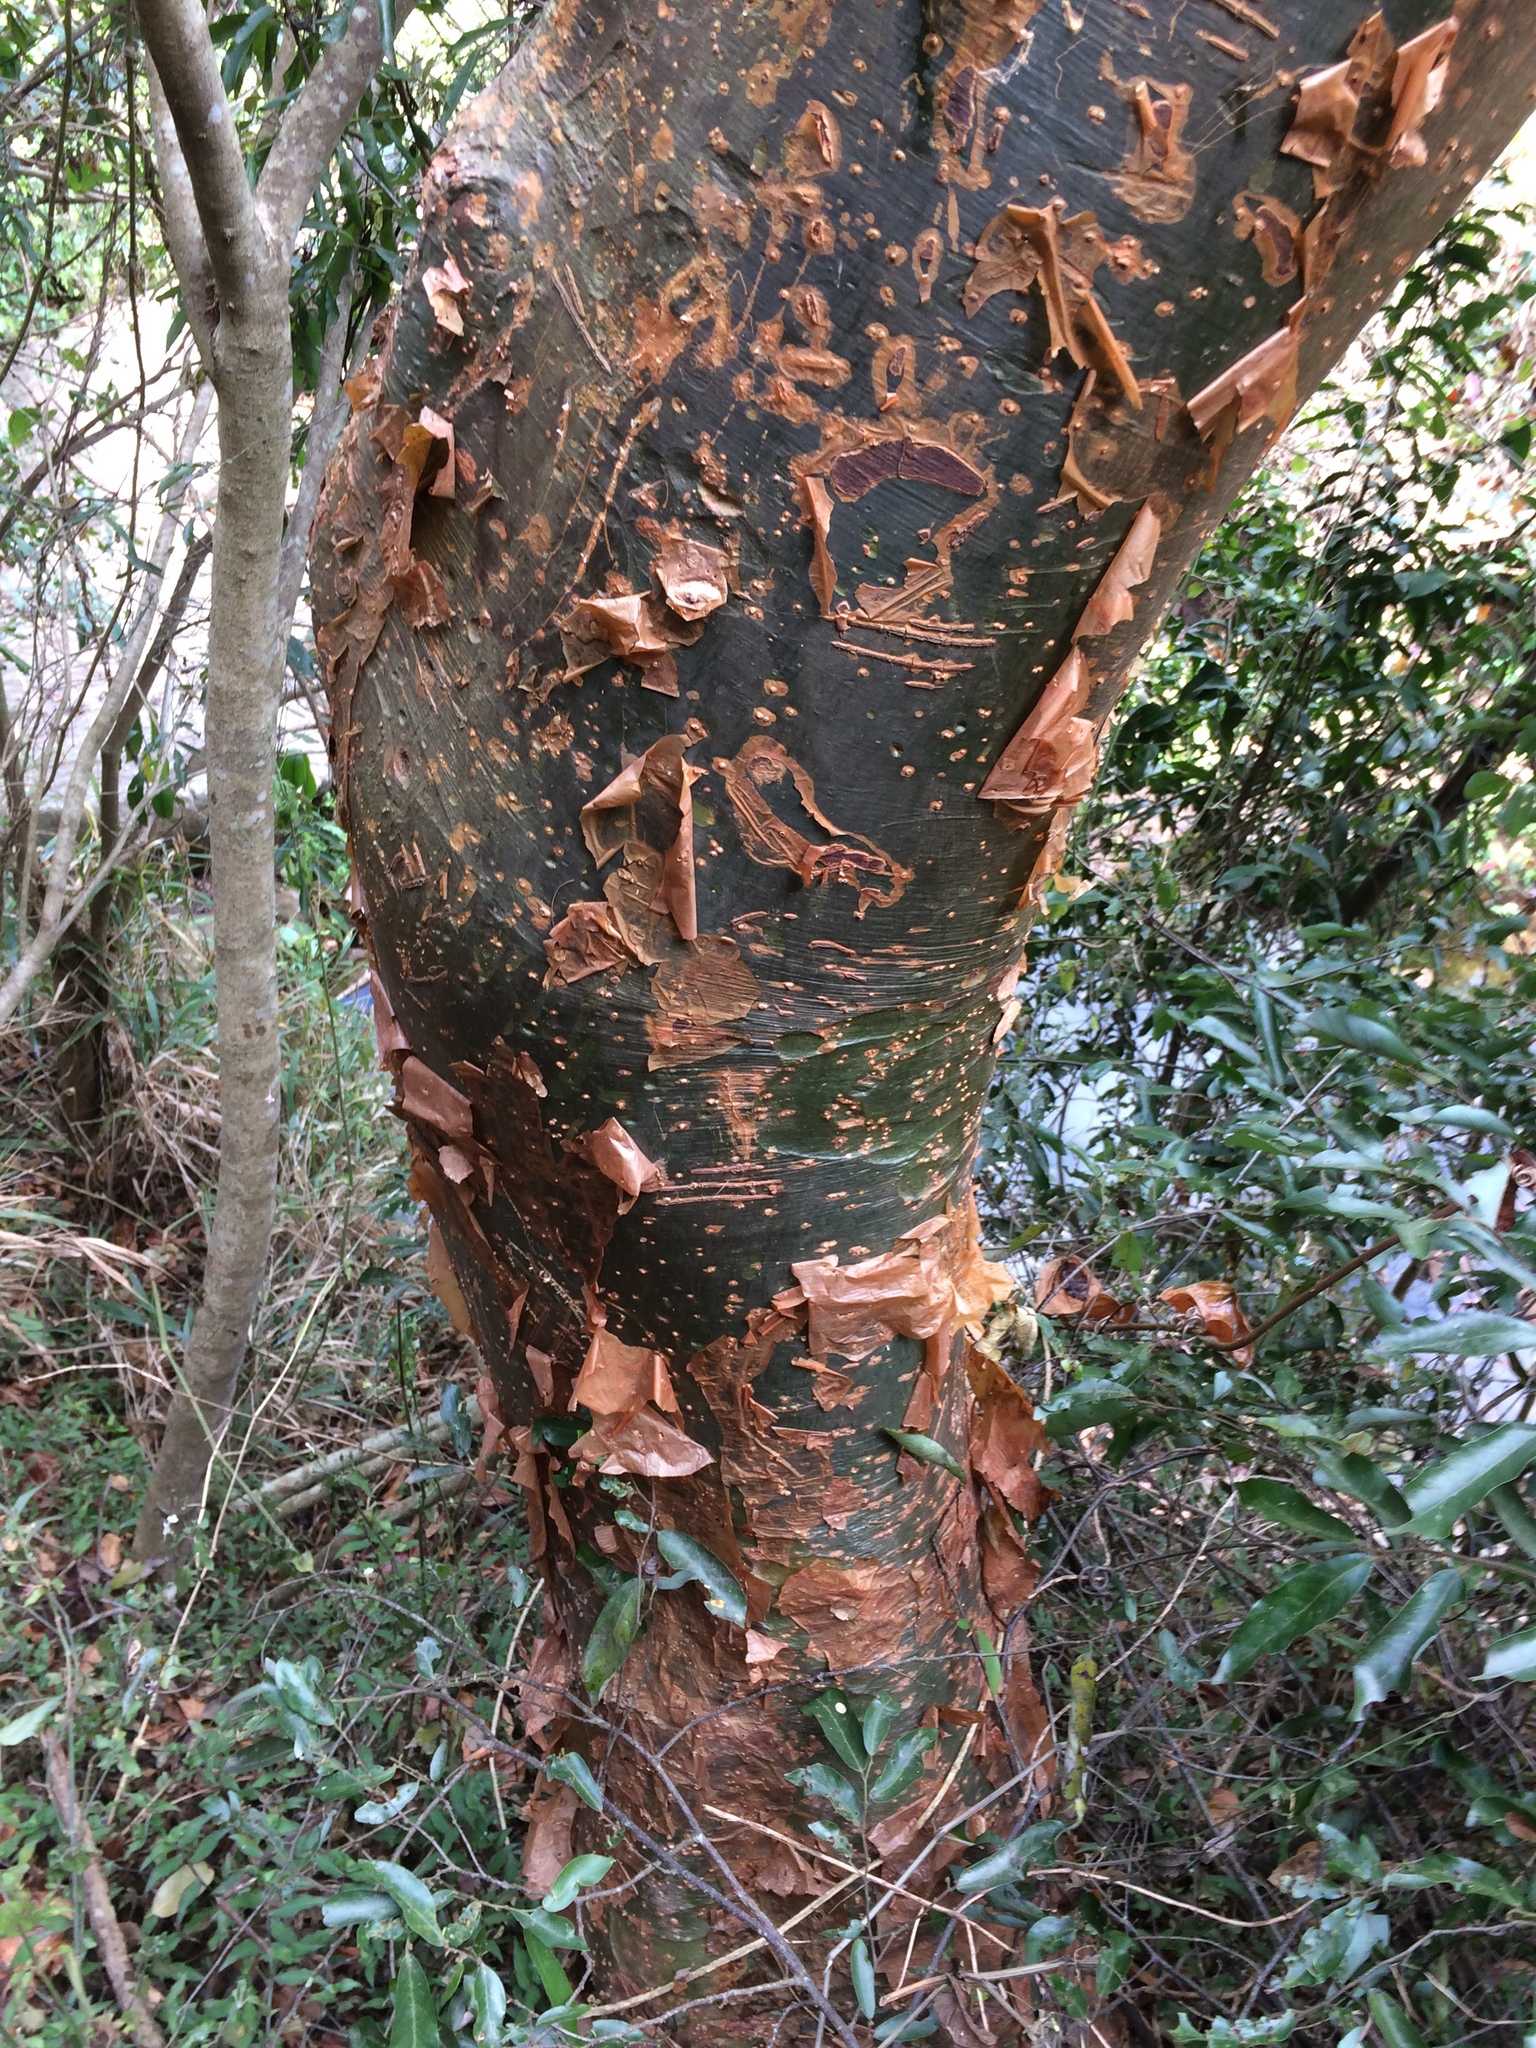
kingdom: Plantae
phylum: Tracheophyta
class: Magnoliopsida
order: Sapindales
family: Burseraceae
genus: Commiphora
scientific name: Commiphora harveyi
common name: Copper-stem corkwood
